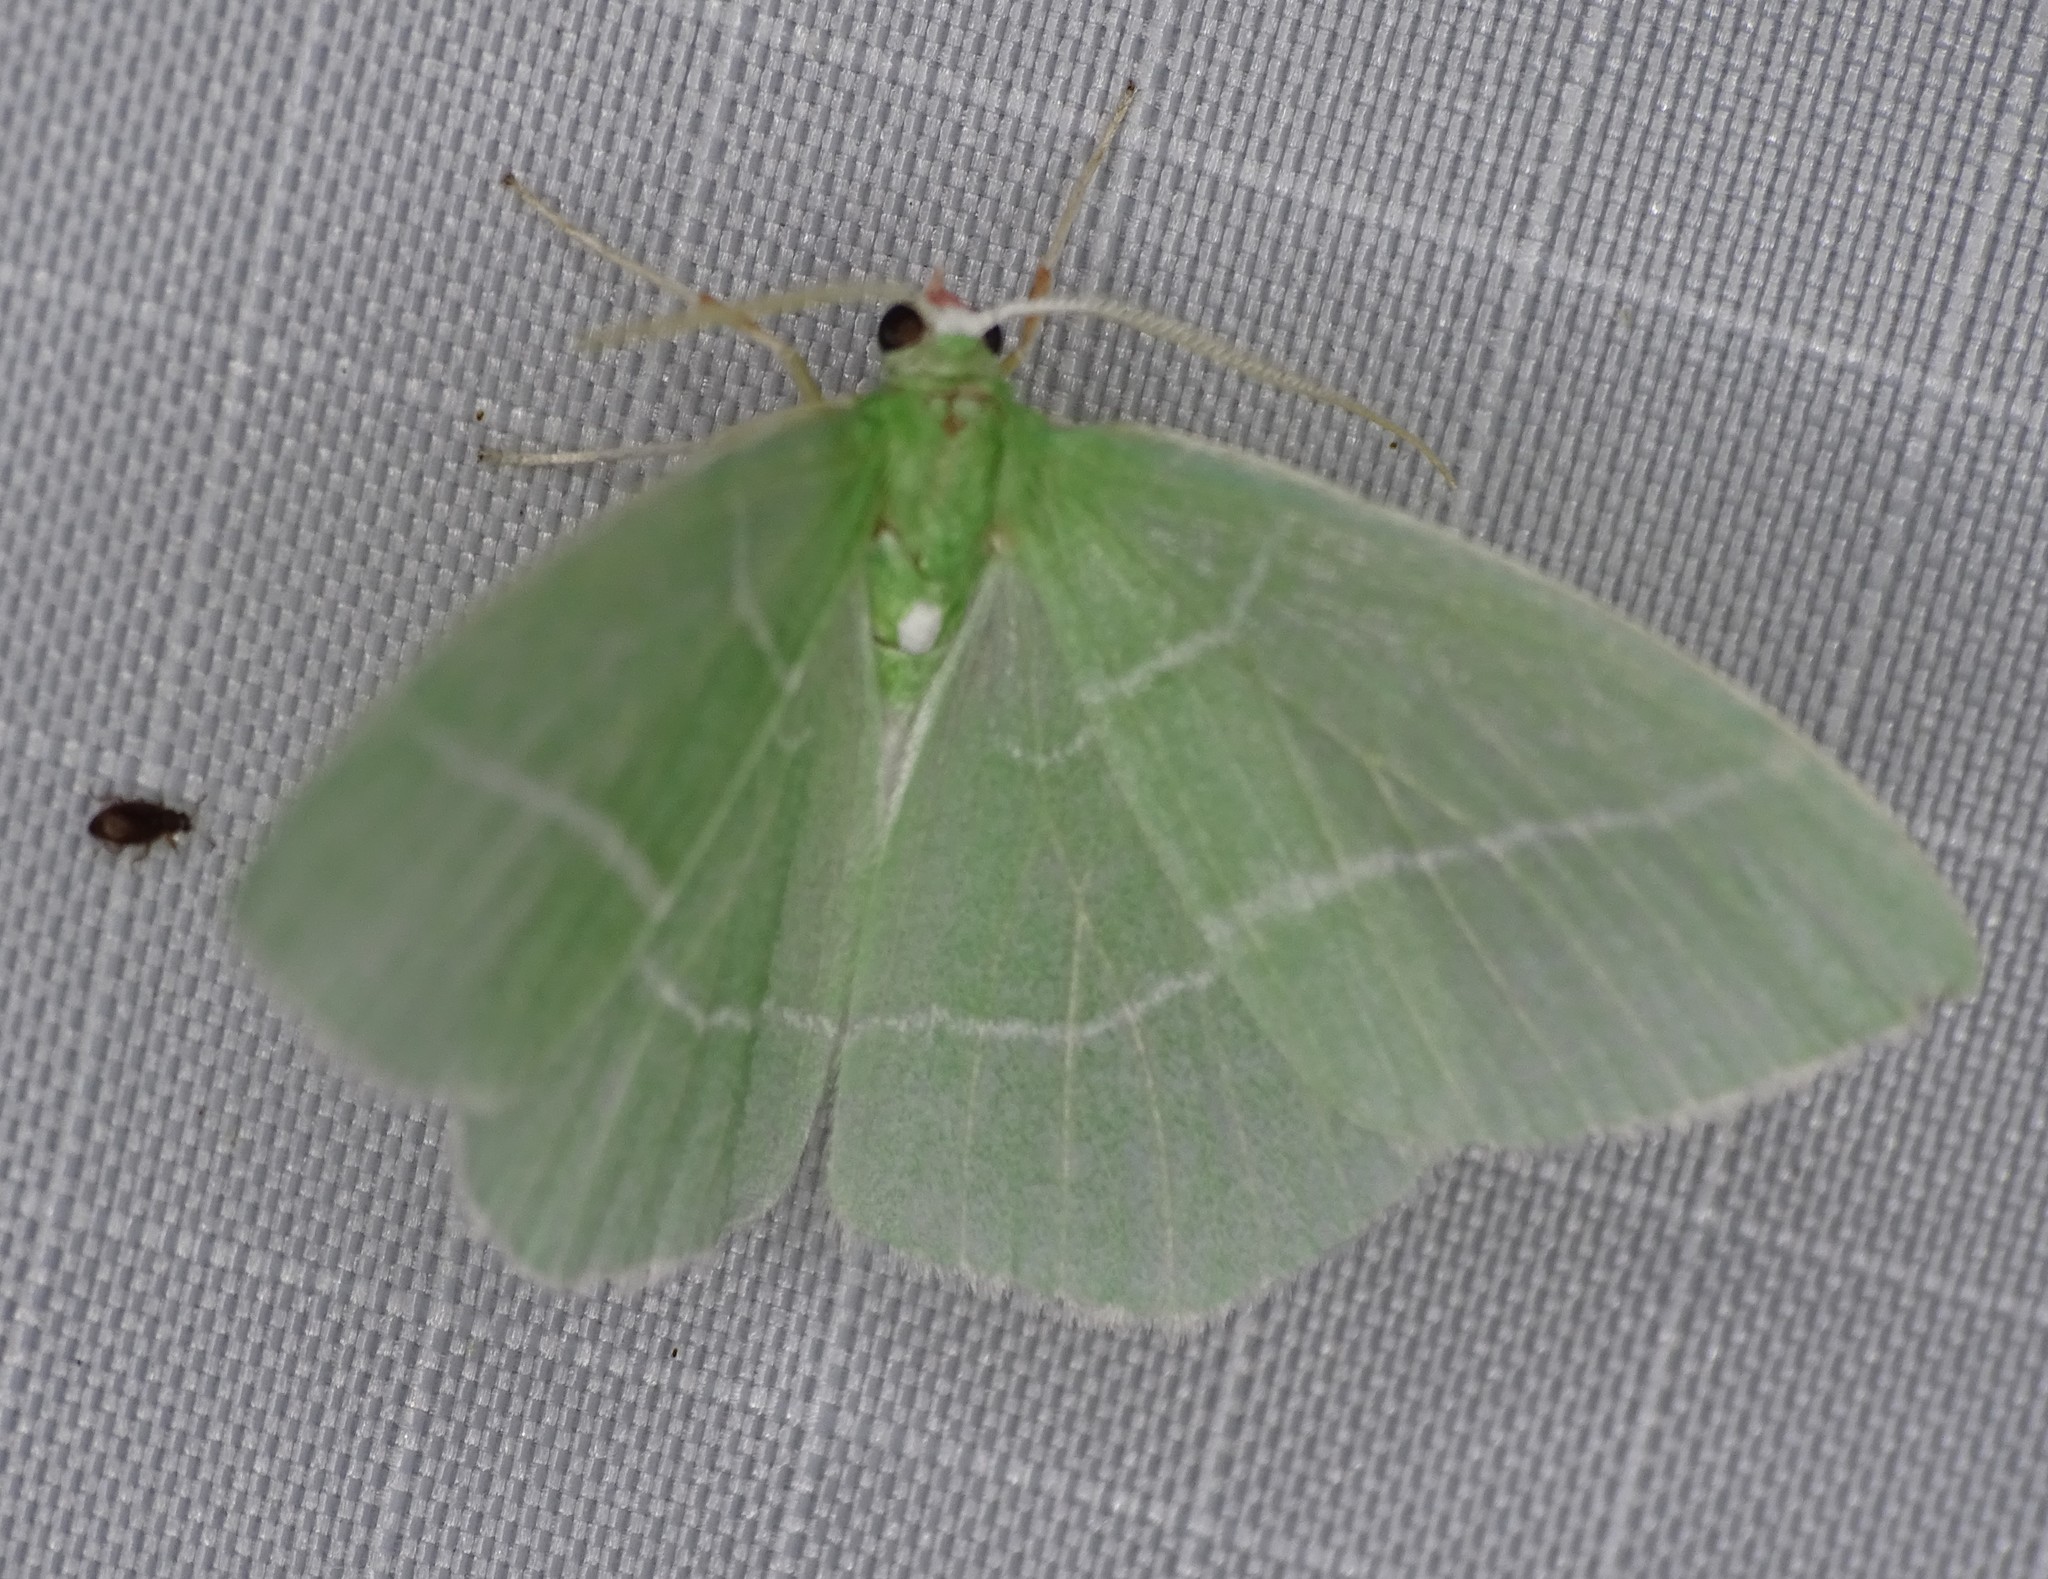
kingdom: Animalia
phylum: Arthropoda
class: Insecta
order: Lepidoptera
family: Geometridae
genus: Nemoria
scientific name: Nemoria mimosaria
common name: White-fringed emerald
